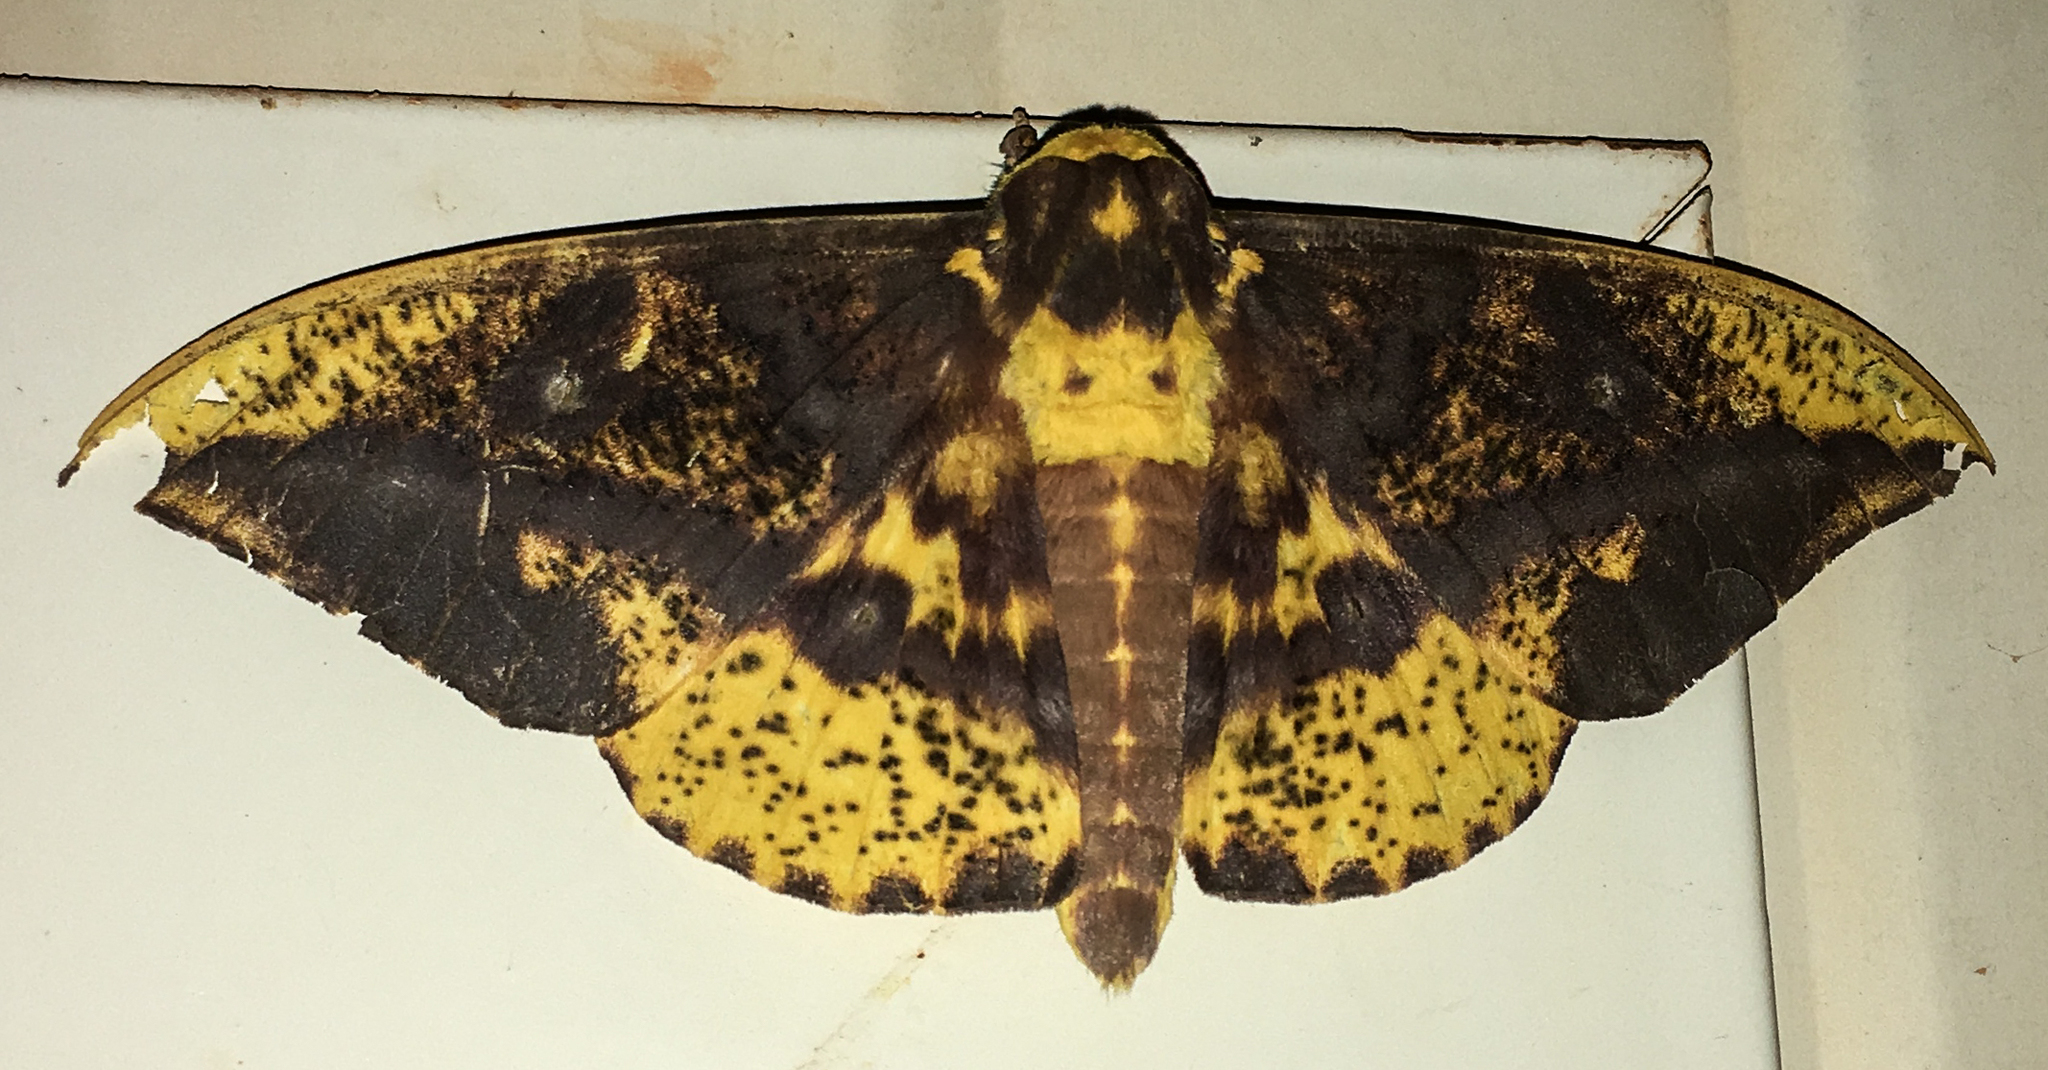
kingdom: Animalia
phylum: Arthropoda
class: Insecta
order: Lepidoptera
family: Saturniidae
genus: Eacles
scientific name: Eacles guianensis
